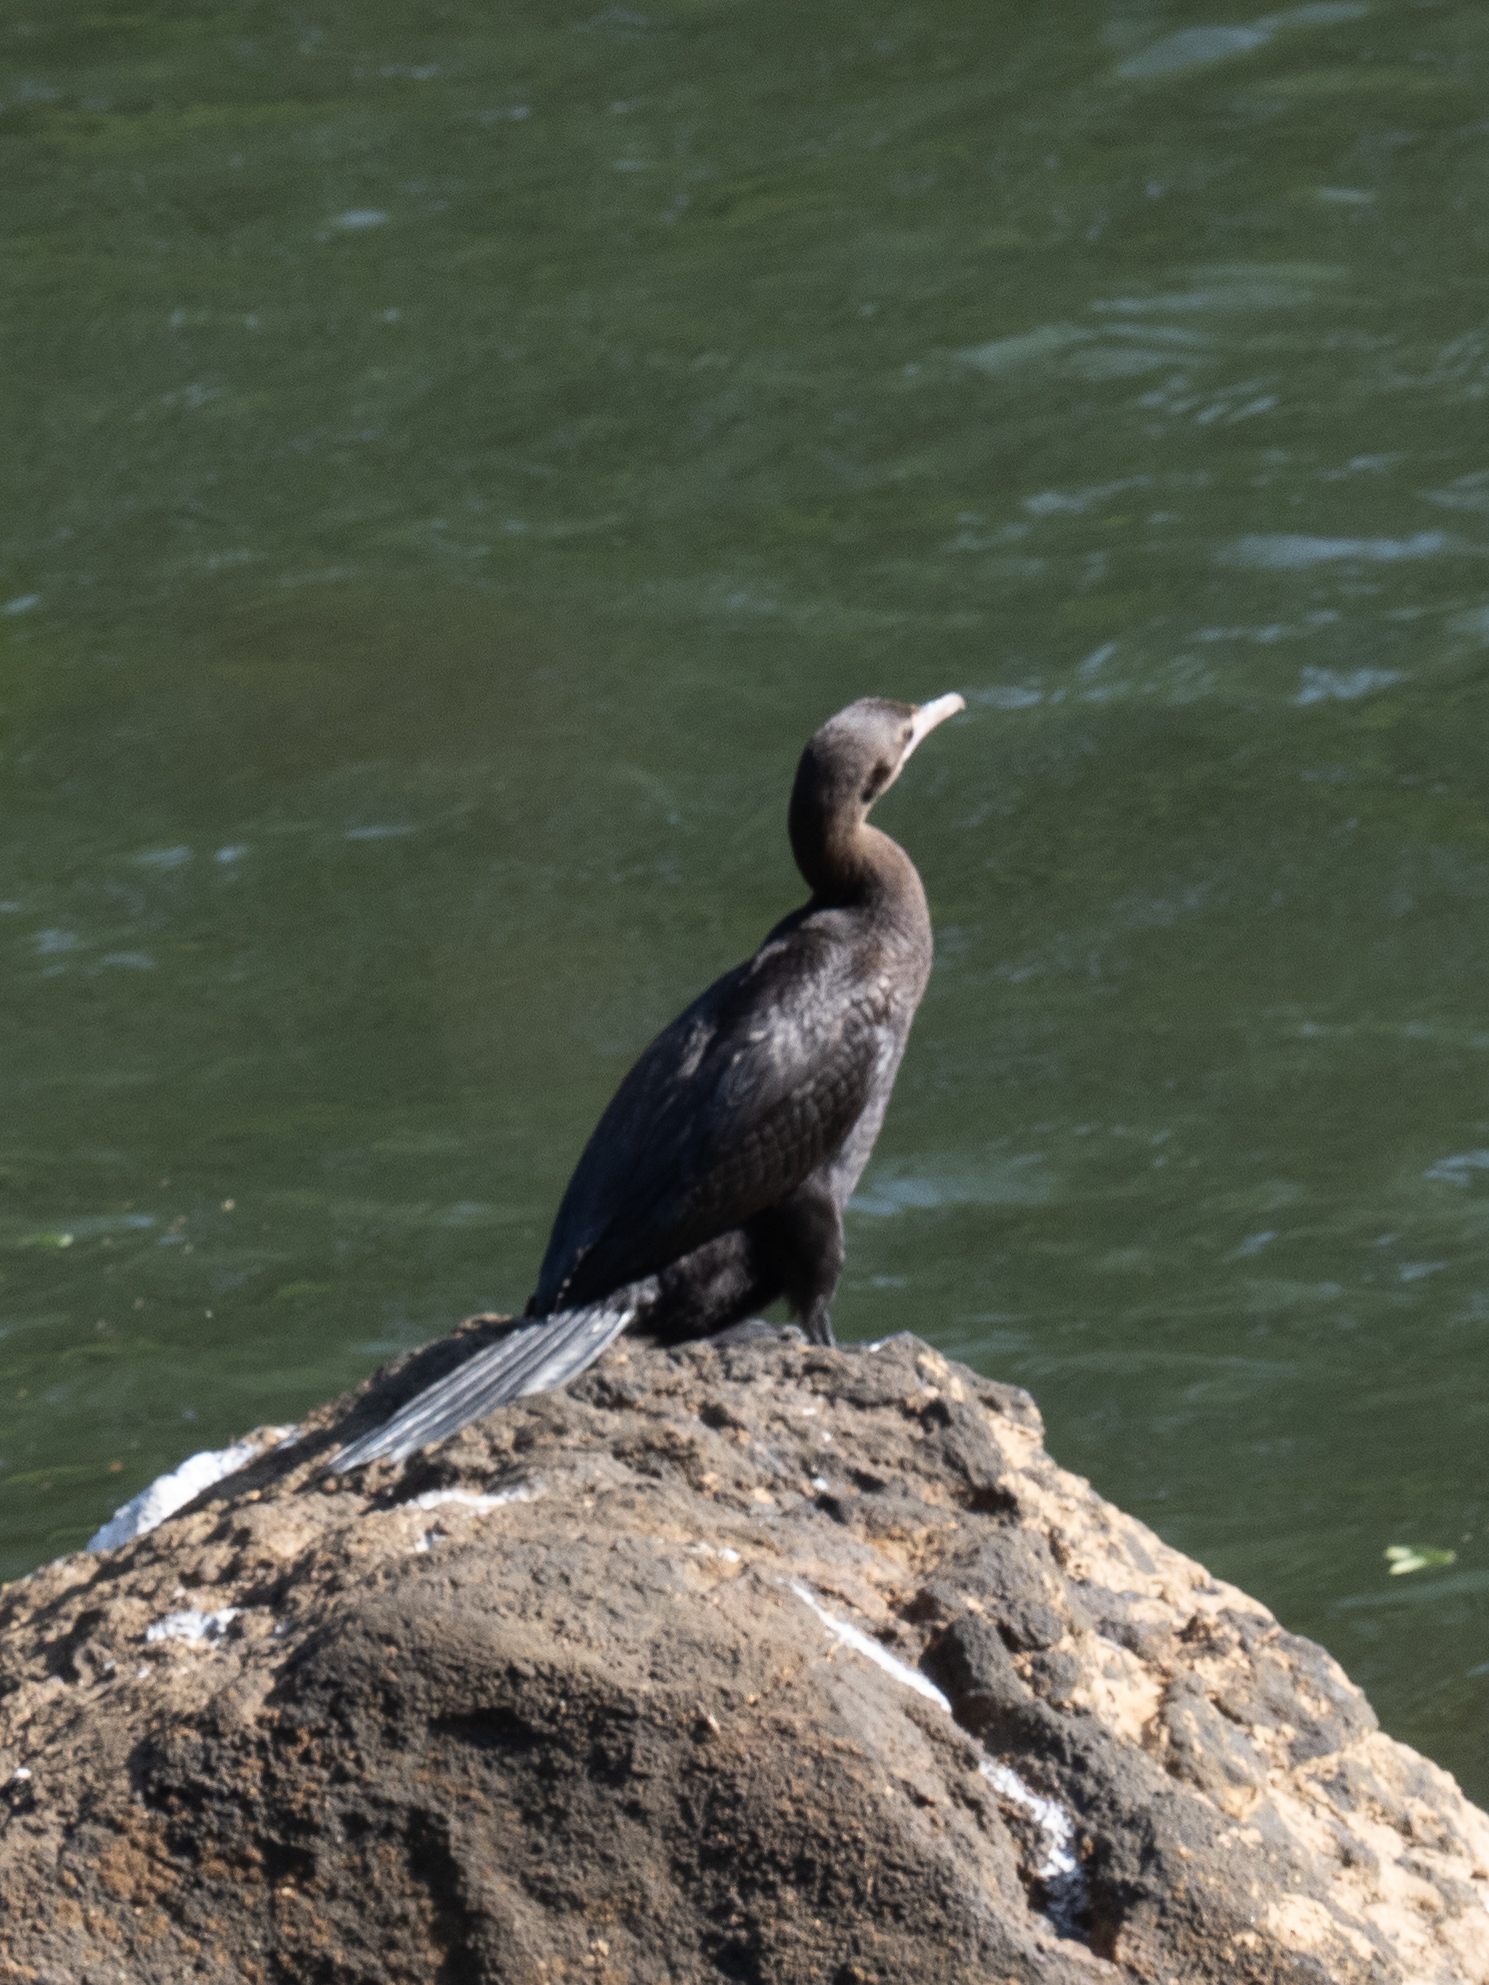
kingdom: Animalia
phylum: Chordata
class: Aves
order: Suliformes
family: Phalacrocoracidae
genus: Microcarbo
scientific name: Microcarbo niger
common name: Little cormorant
